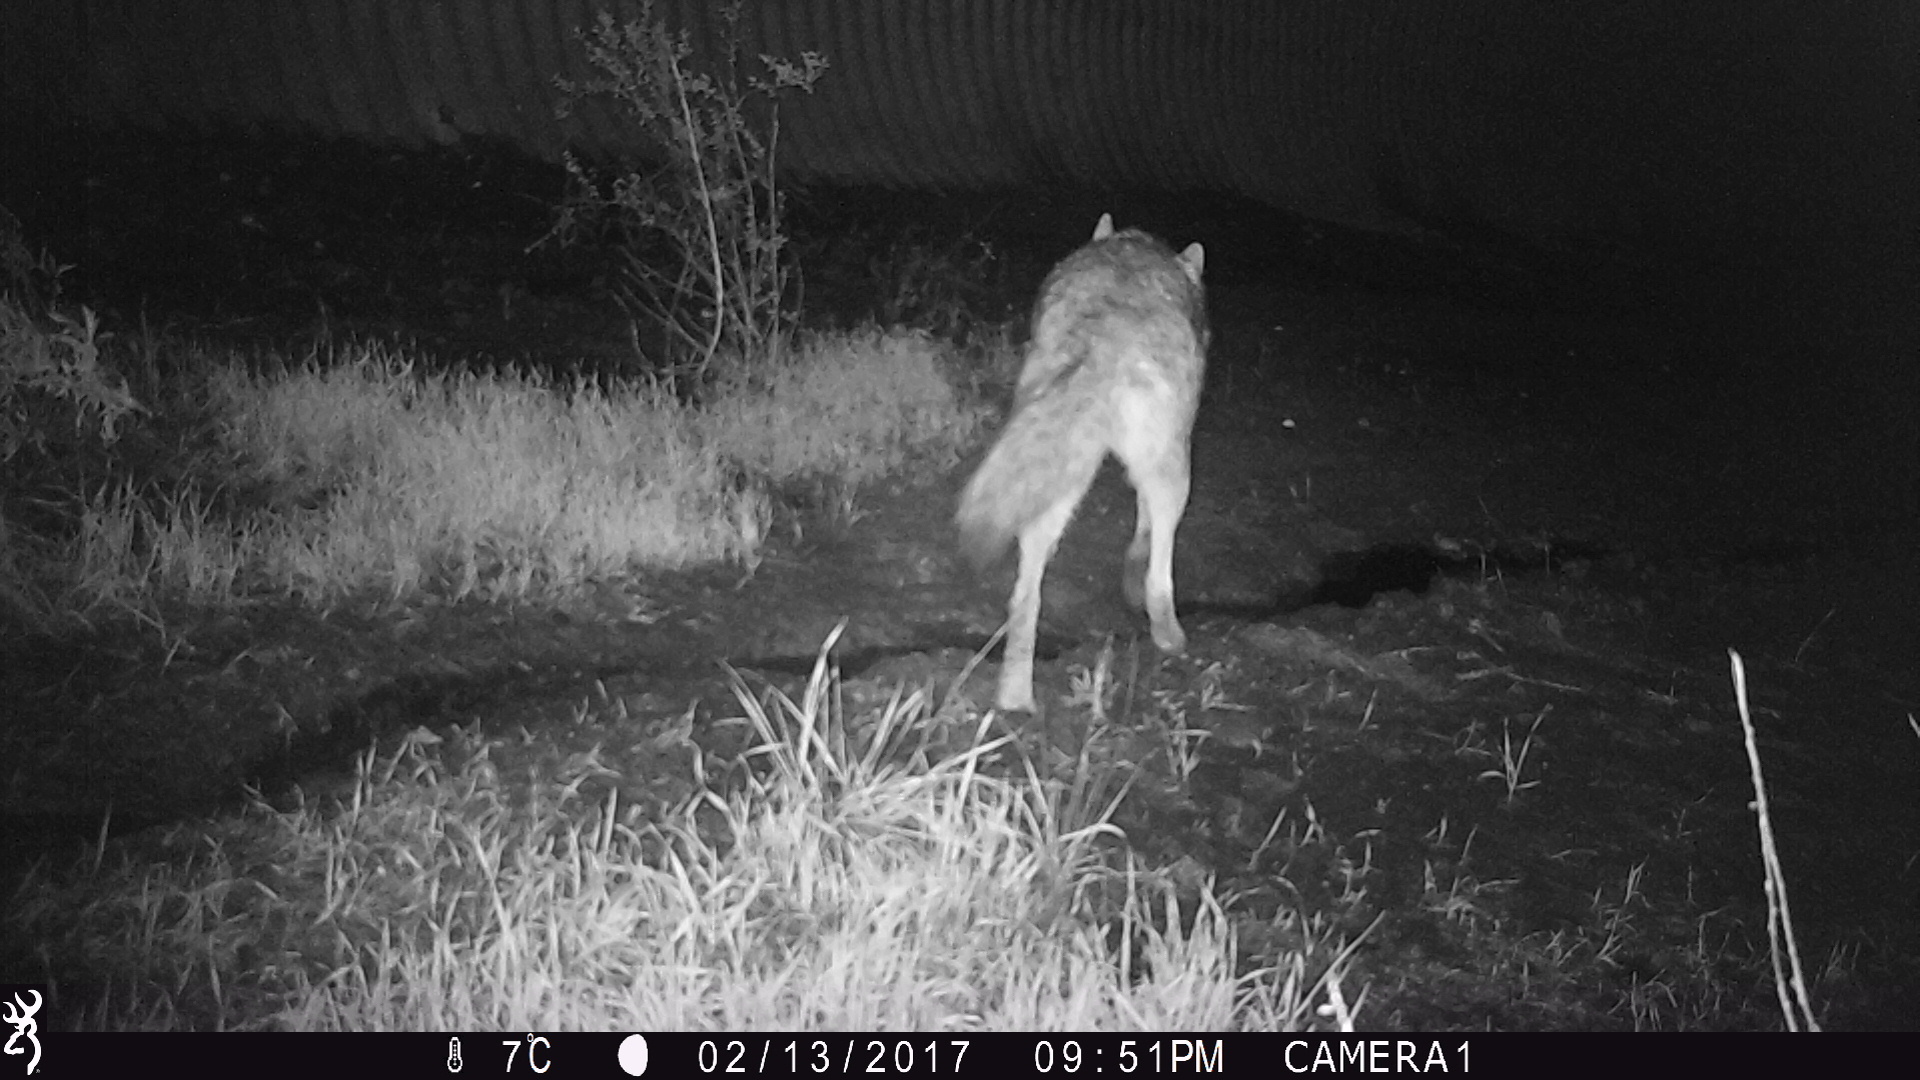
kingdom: Animalia
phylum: Chordata
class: Mammalia
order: Carnivora
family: Canidae
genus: Canis
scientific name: Canis latrans
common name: Coyote
